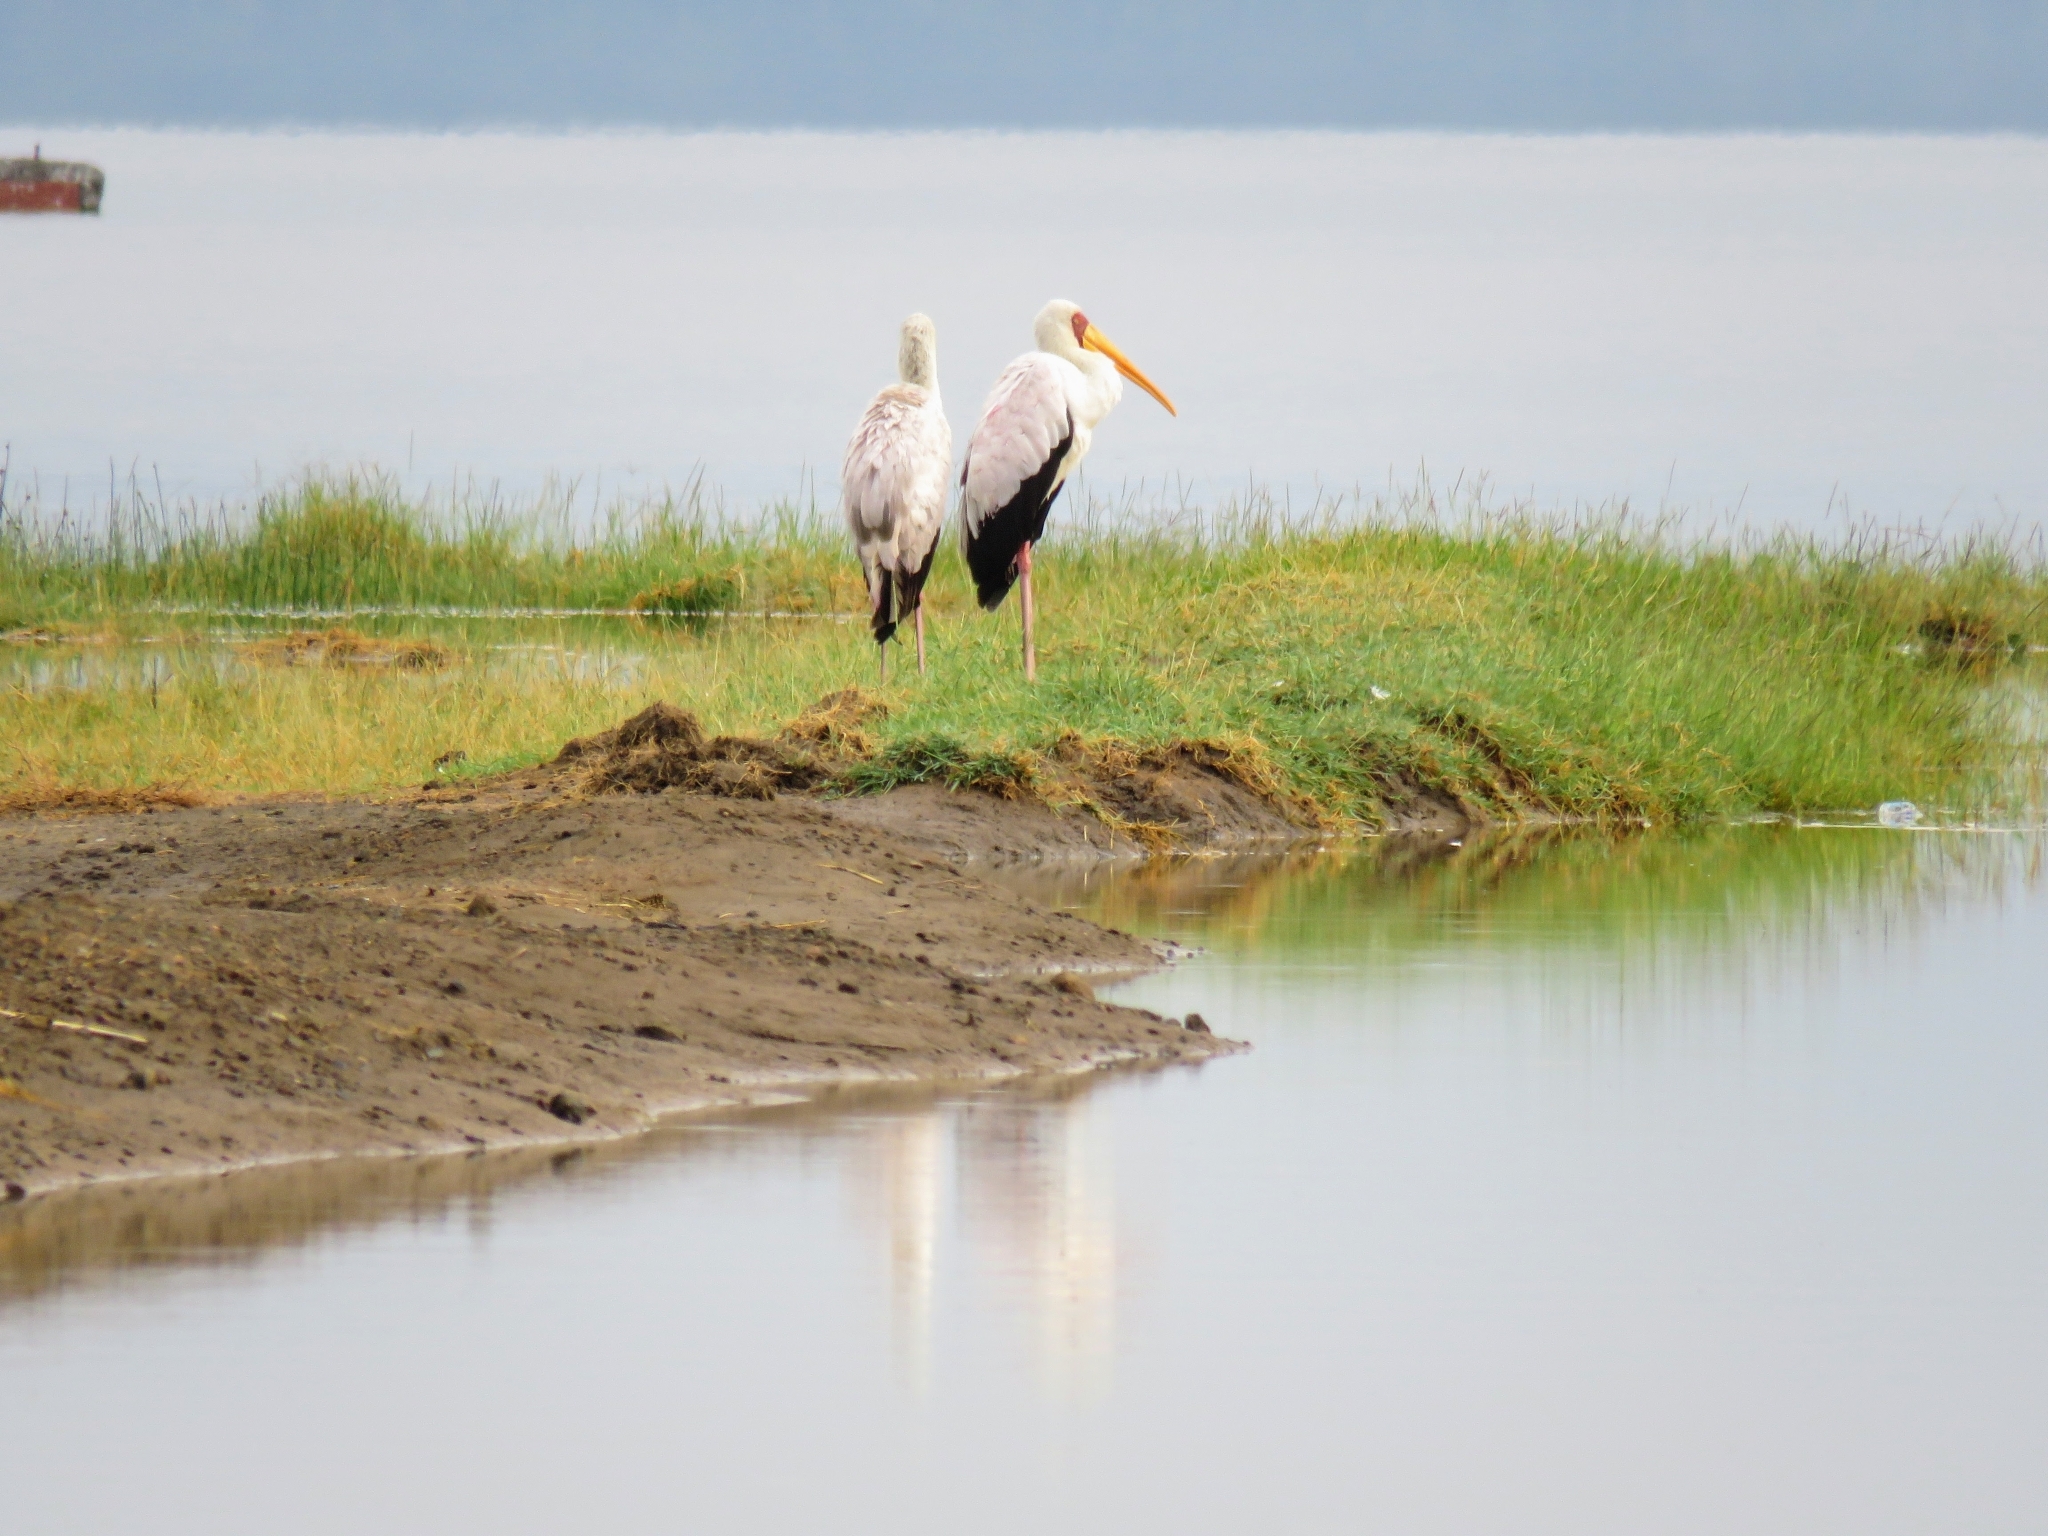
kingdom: Animalia
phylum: Chordata
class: Aves
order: Ciconiiformes
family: Ciconiidae
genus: Mycteria
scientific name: Mycteria ibis
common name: Yellow-billed stork
